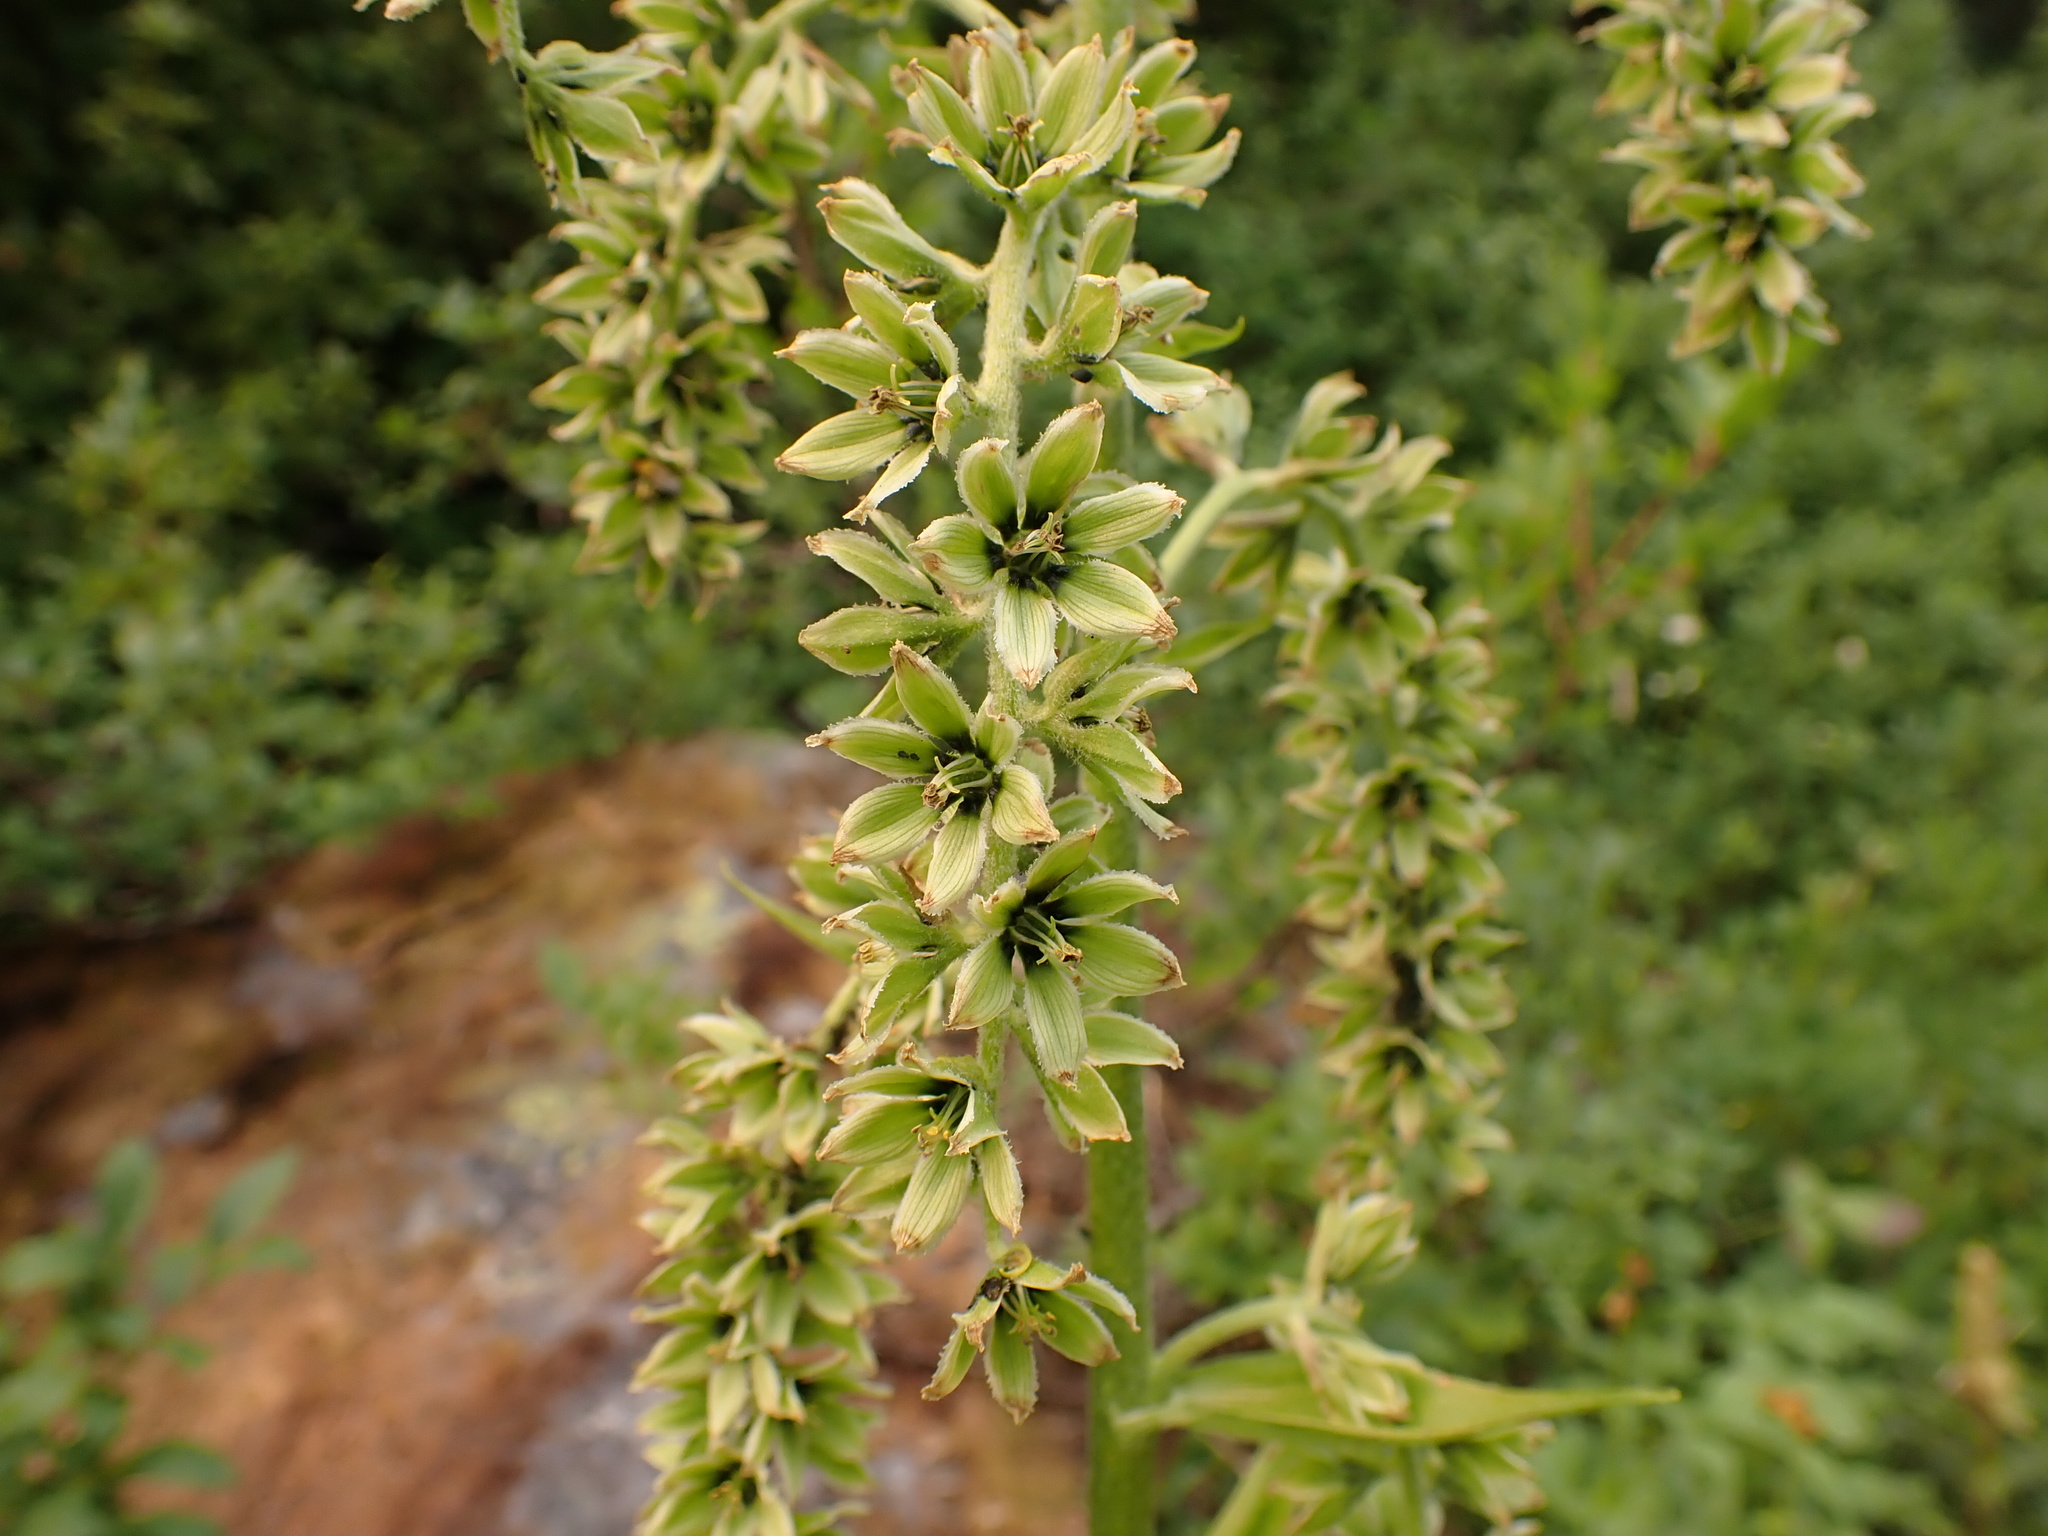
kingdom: Plantae
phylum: Tracheophyta
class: Liliopsida
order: Liliales
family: Melanthiaceae
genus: Veratrum
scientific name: Veratrum viride
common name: American false hellebore
